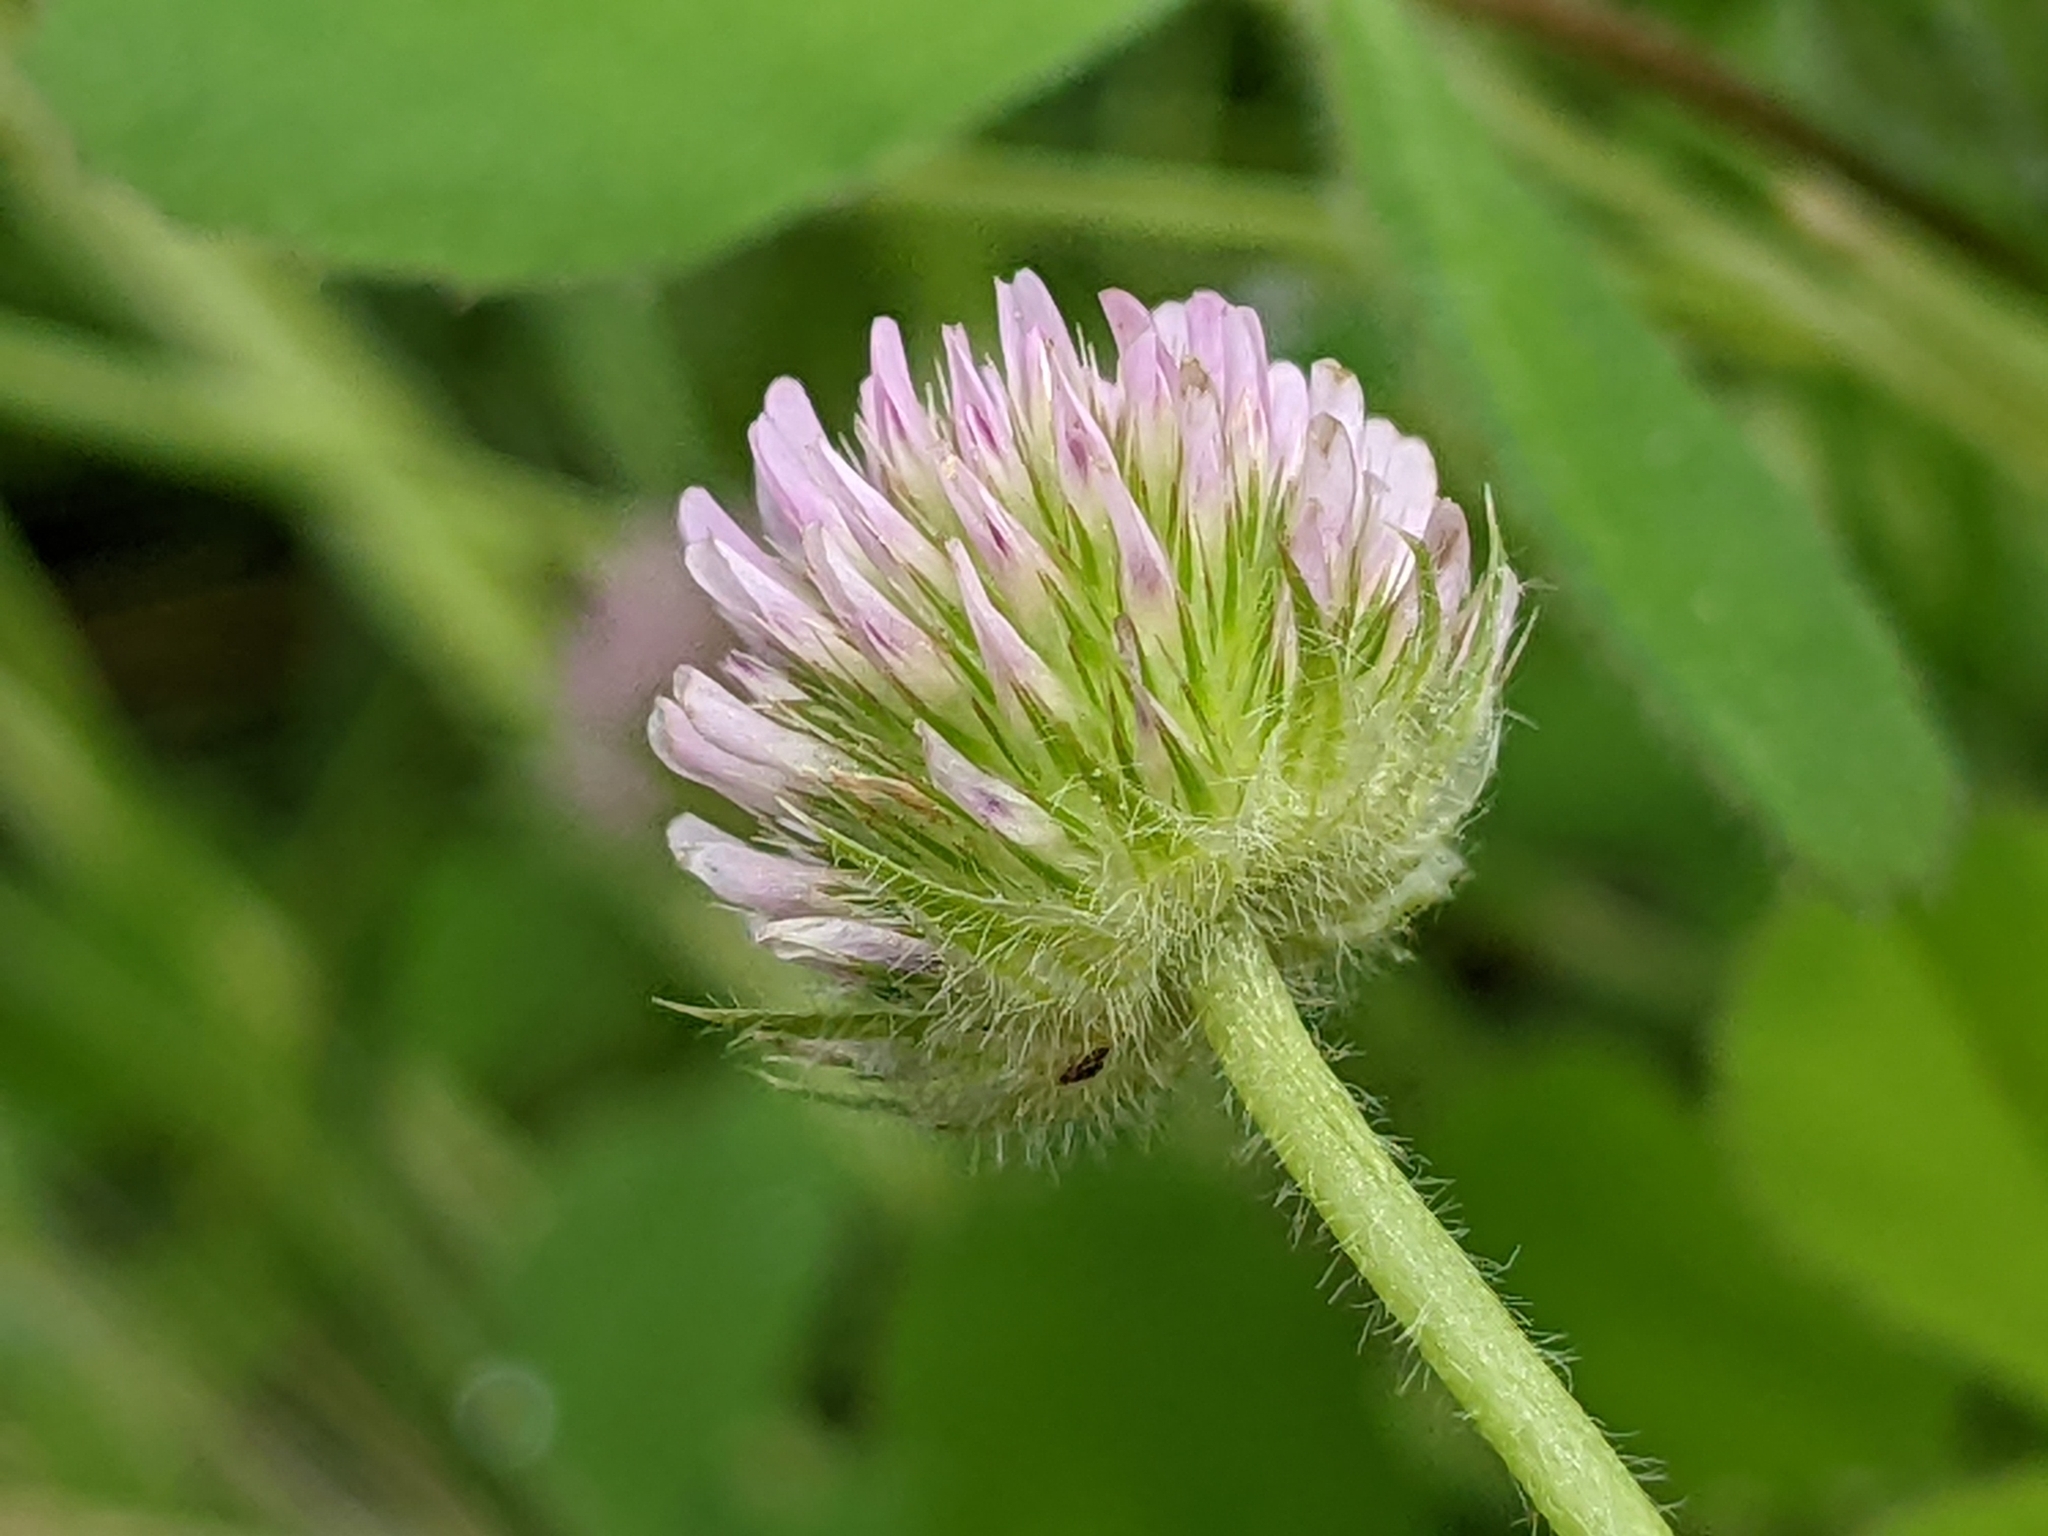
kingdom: Plantae
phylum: Tracheophyta
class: Magnoliopsida
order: Fabales
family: Fabaceae
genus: Trifolium
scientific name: Trifolium microcephalum
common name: Maiden clover
